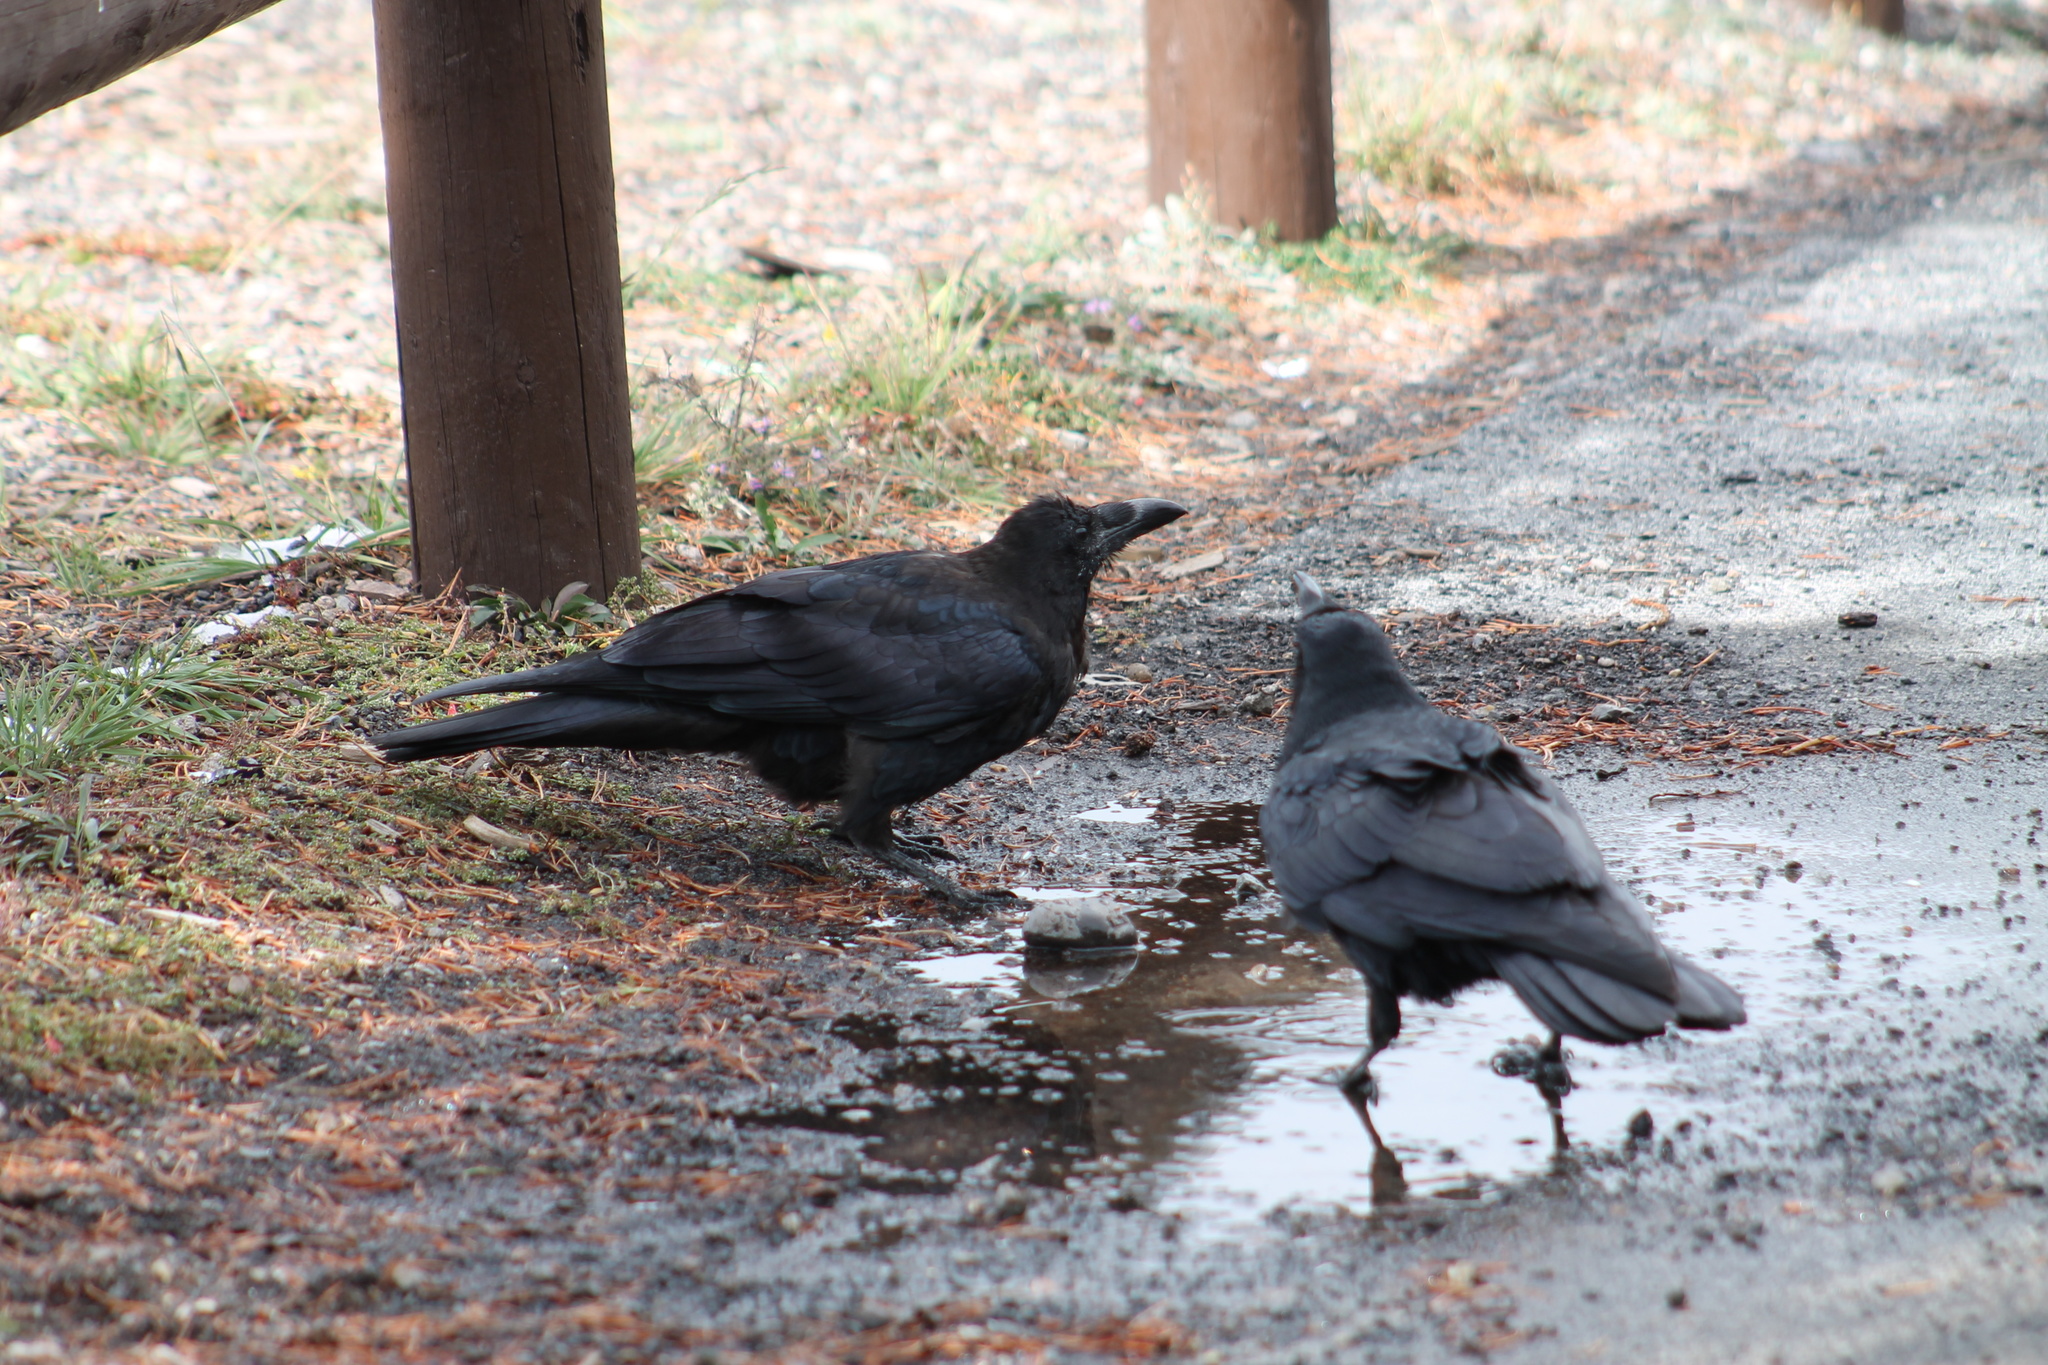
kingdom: Animalia
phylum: Chordata
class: Aves
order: Passeriformes
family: Corvidae
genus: Corvus
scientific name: Corvus corax
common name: Common raven
